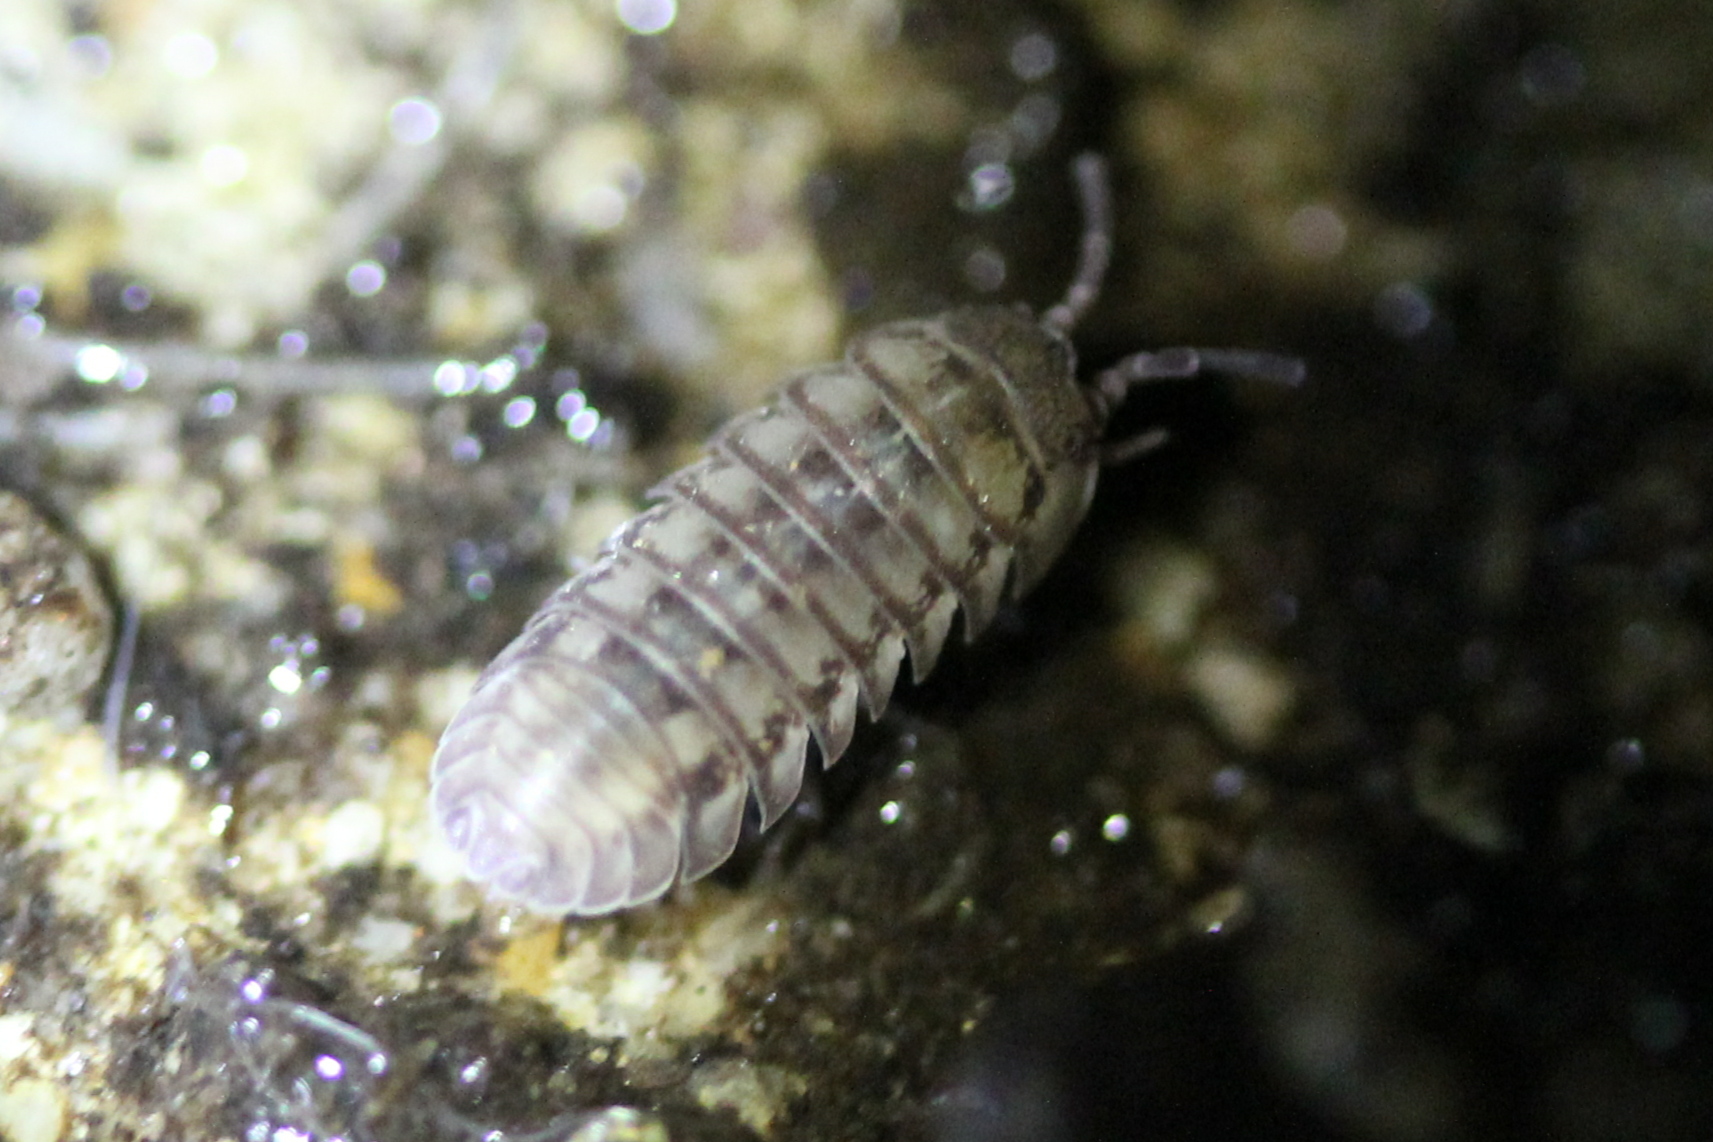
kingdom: Animalia
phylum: Arthropoda
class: Malacostraca
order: Isopoda
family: Armadillidiidae
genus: Armadillidium
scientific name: Armadillidium nasatum
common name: Isopod
